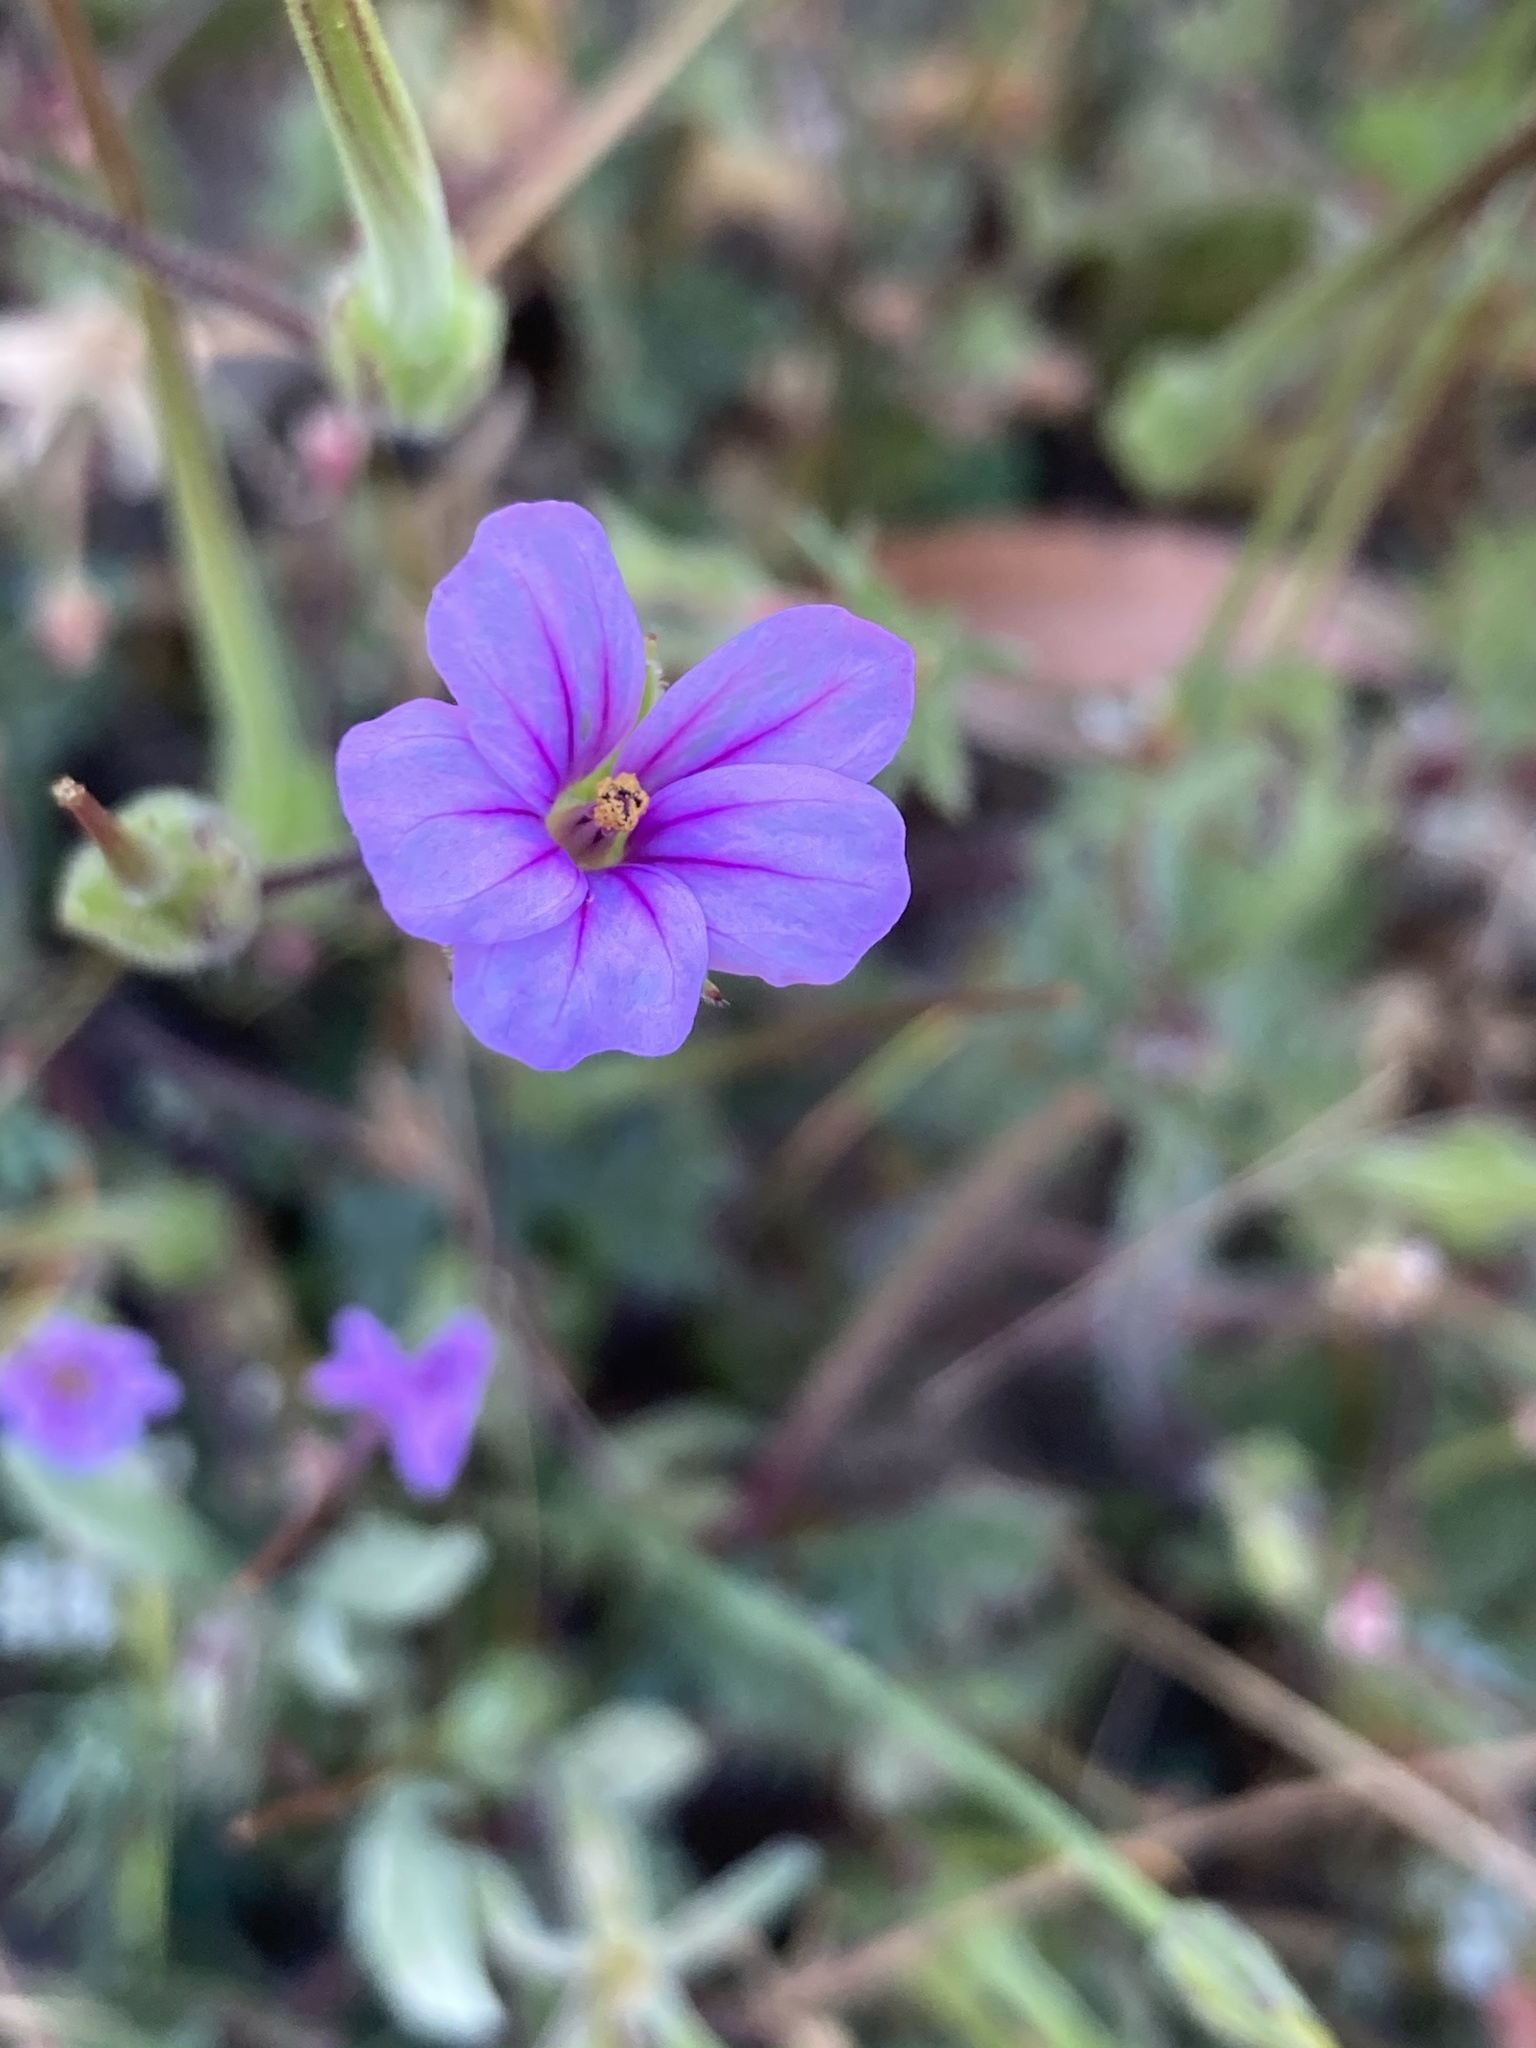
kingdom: Plantae
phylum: Tracheophyta
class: Magnoliopsida
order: Geraniales
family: Geraniaceae
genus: Erodium
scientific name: Erodium botrys
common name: Mediterranean stork's-bill
